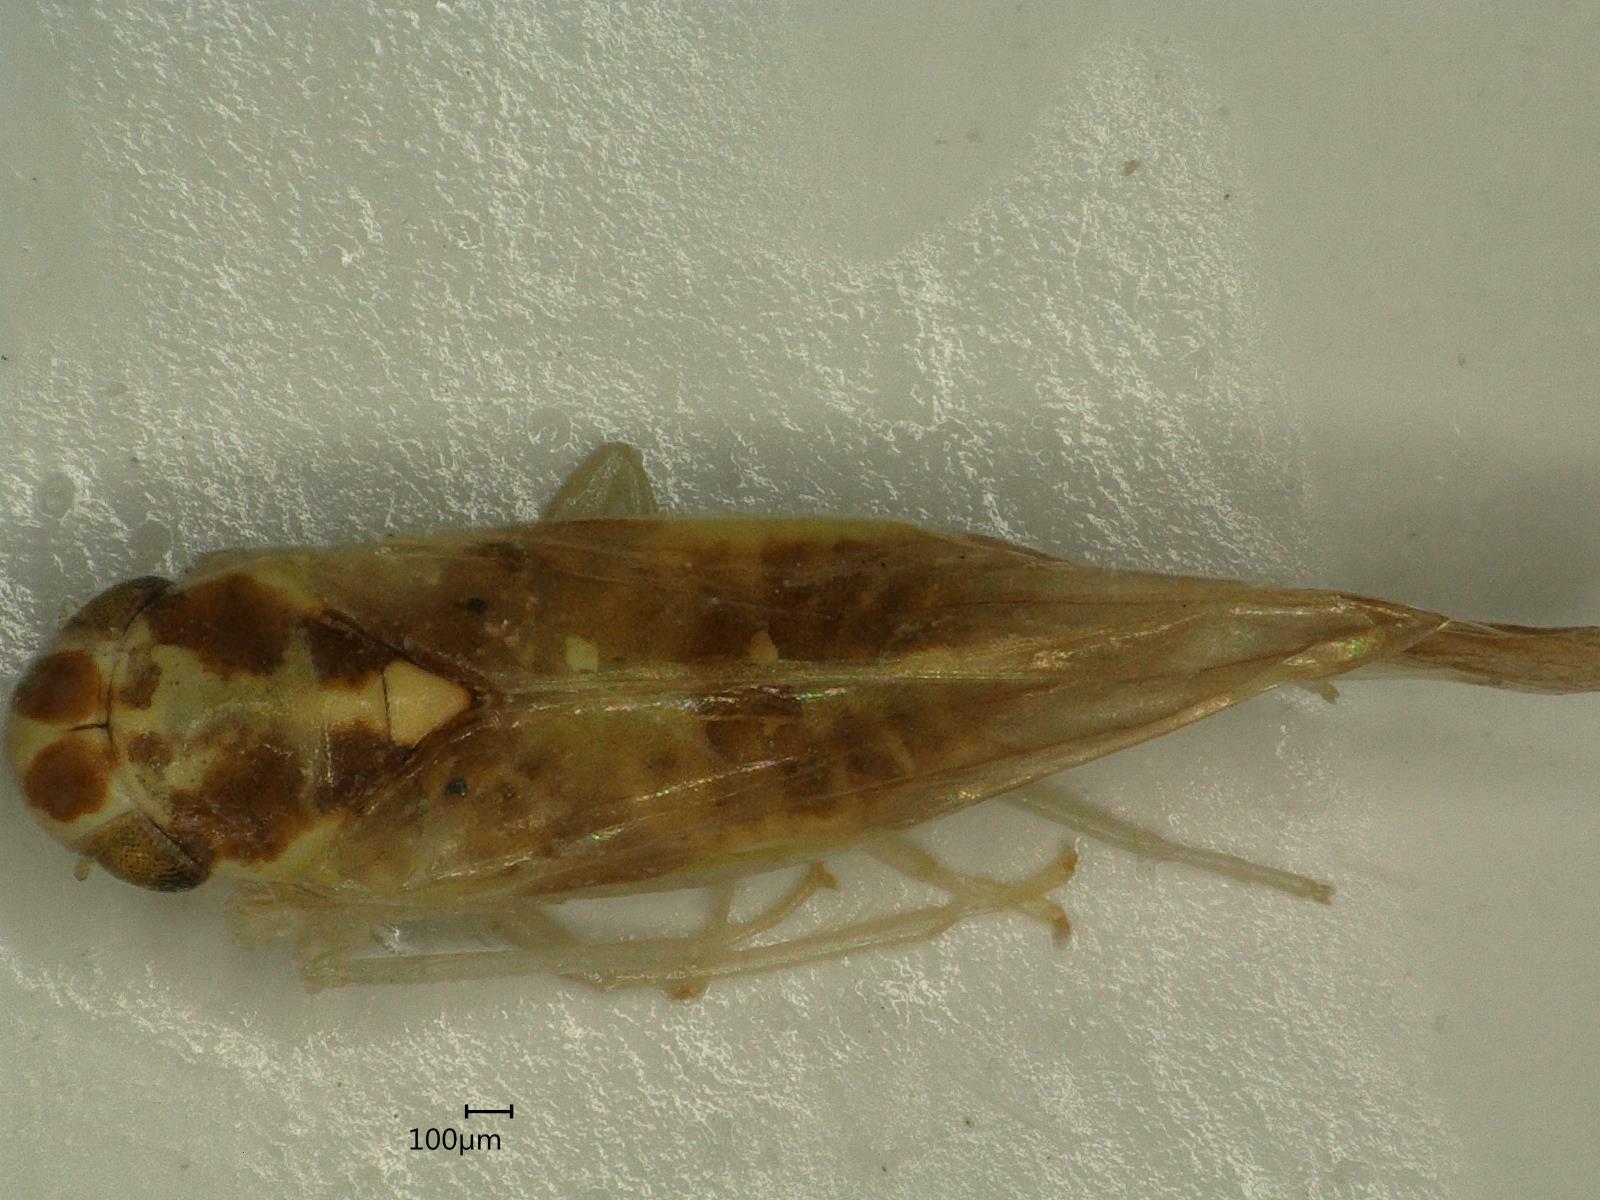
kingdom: Animalia
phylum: Arthropoda
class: Insecta
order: Hemiptera
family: Cicadellidae
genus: Eupteryx
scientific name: Eupteryx aurata
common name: Leafhopper
